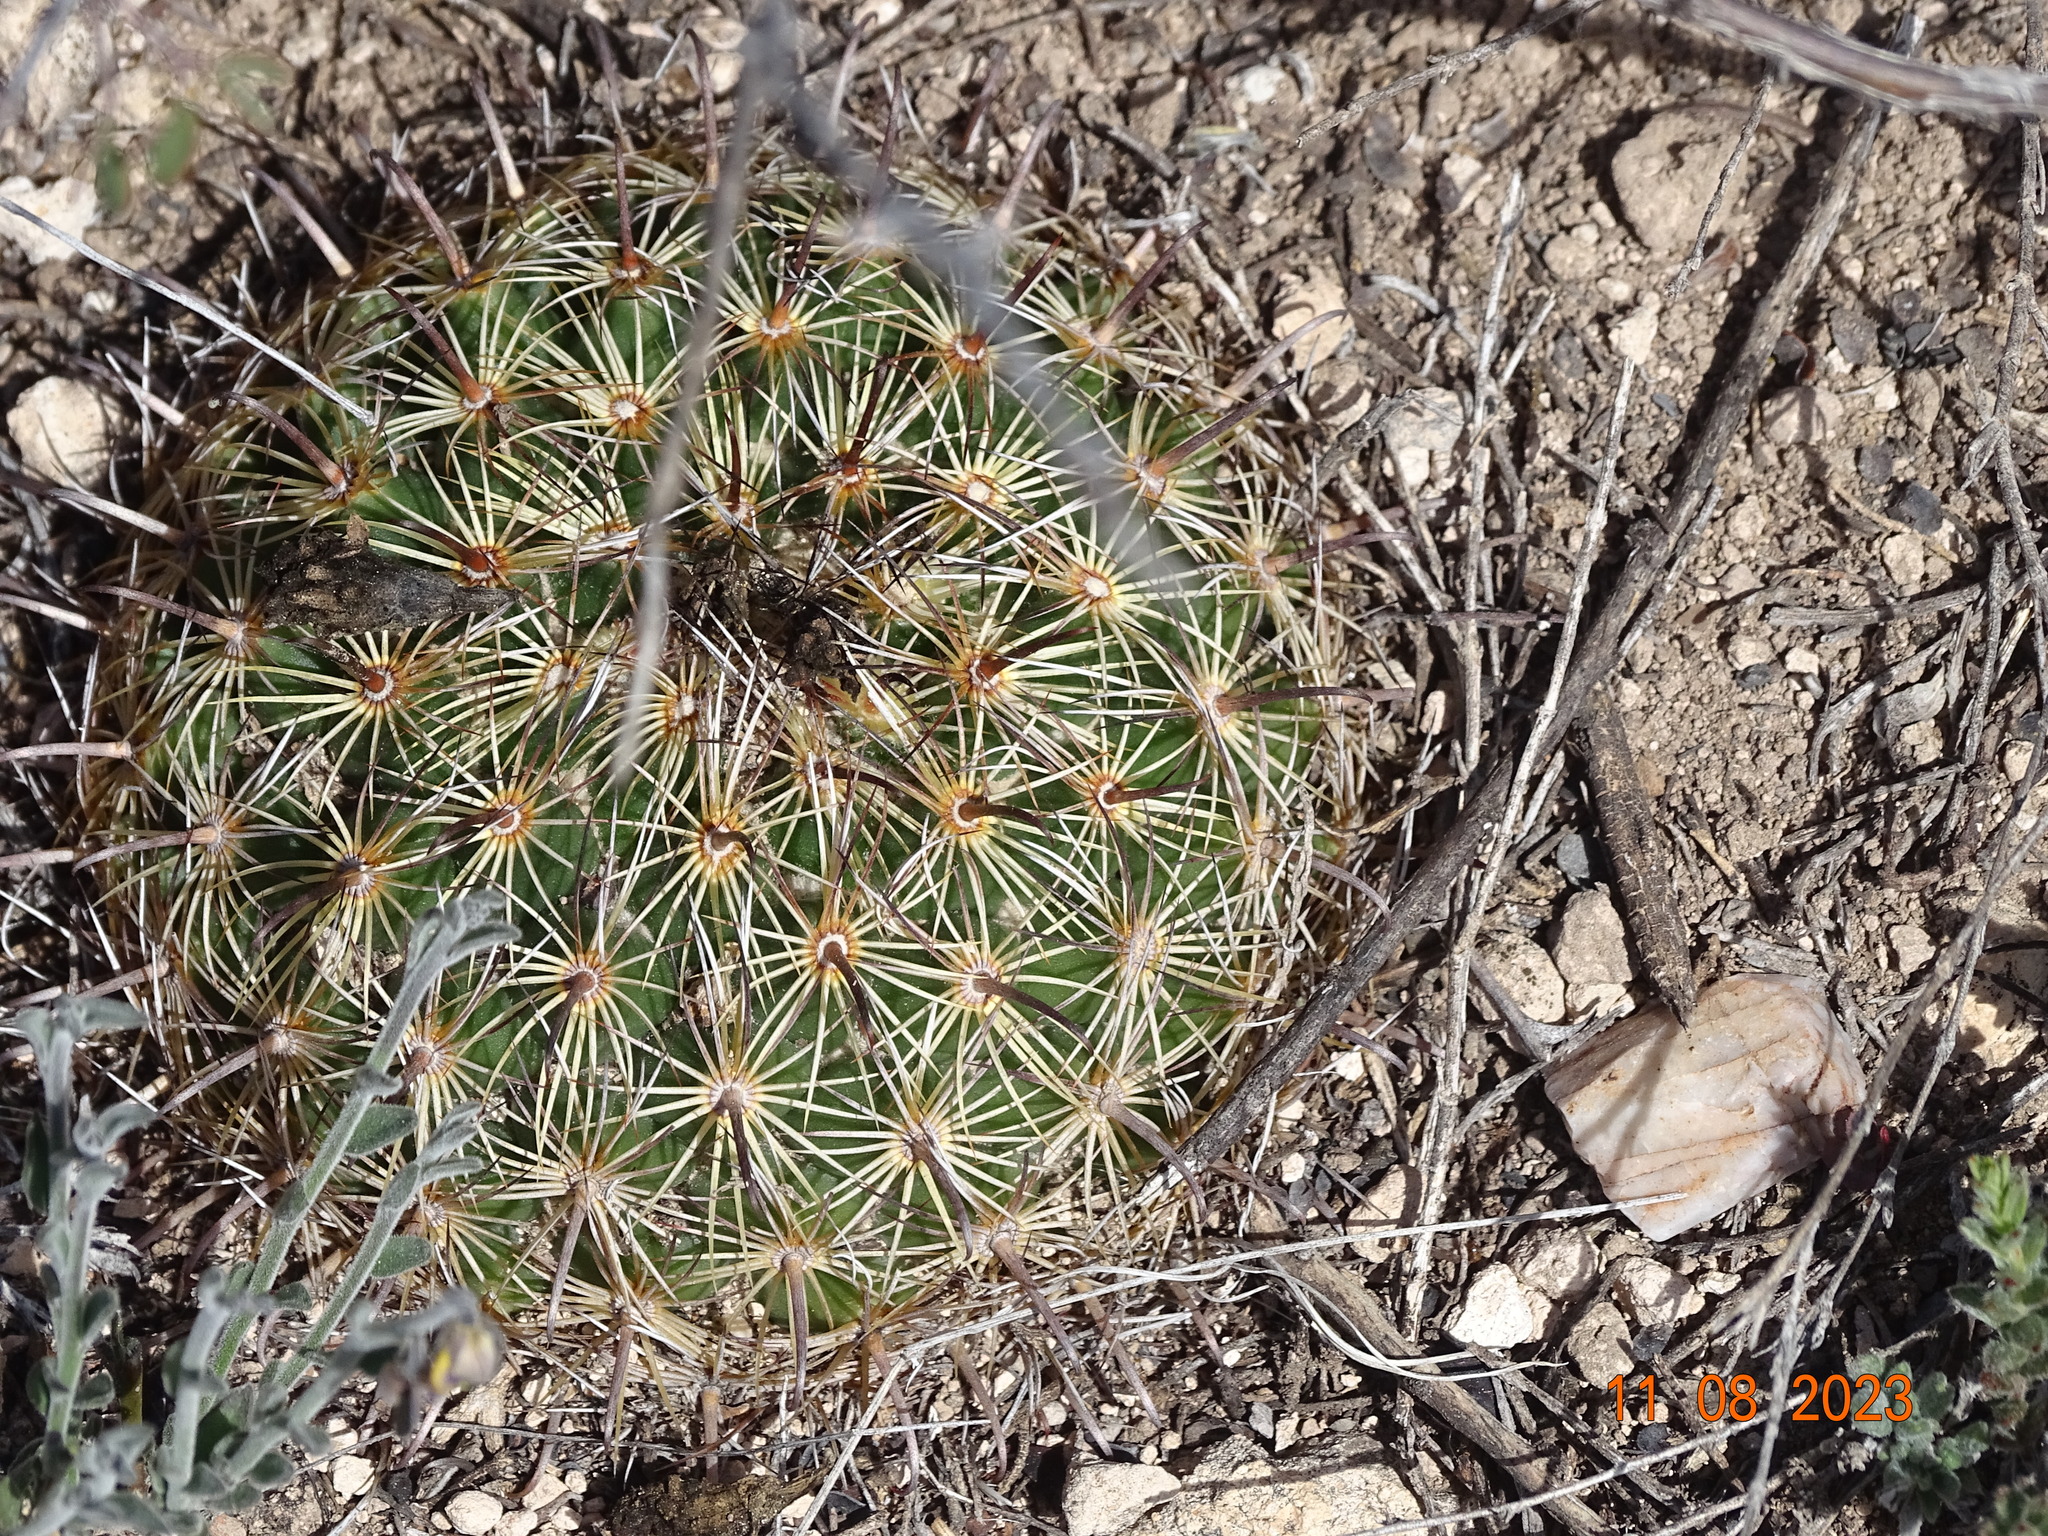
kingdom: Plantae
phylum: Tracheophyta
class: Magnoliopsida
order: Caryophyllales
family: Cactaceae
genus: Coryphantha
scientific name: Coryphantha delicata
